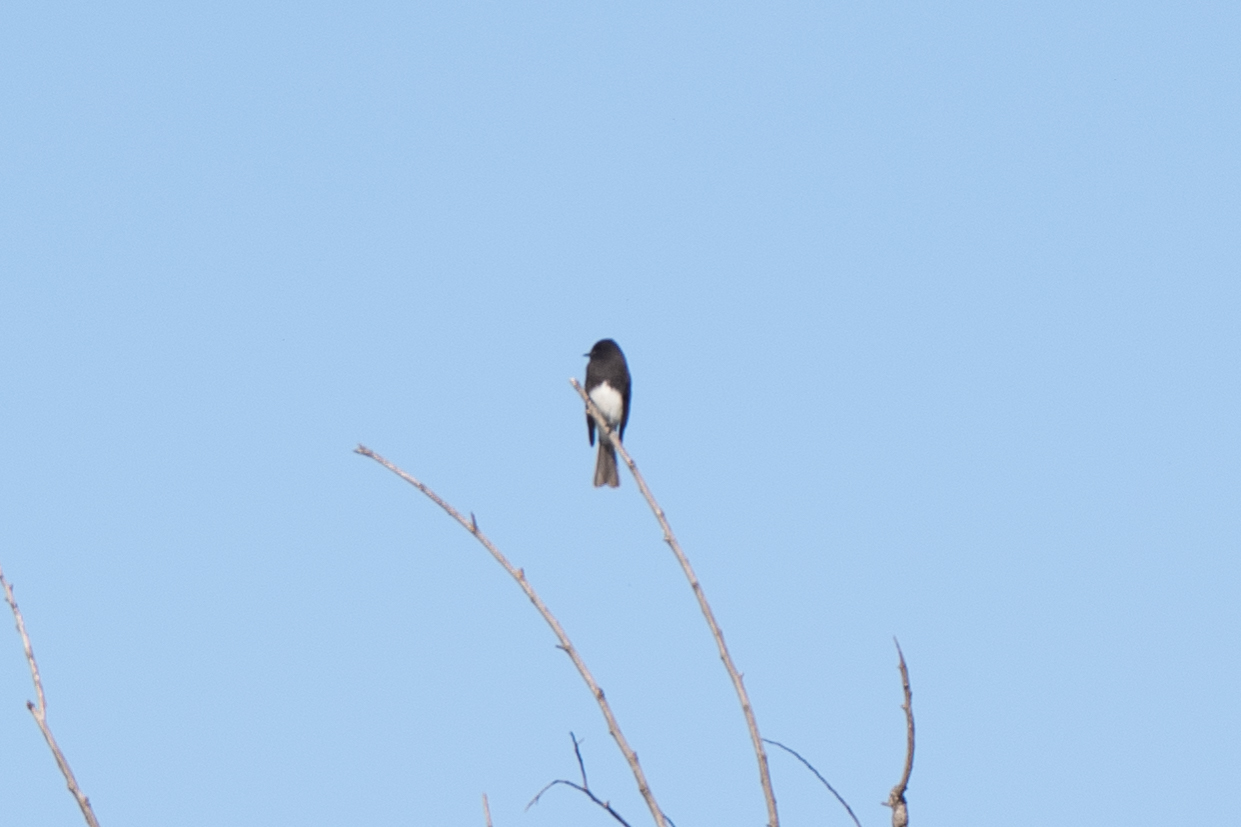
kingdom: Animalia
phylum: Chordata
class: Aves
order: Passeriformes
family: Tyrannidae
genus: Sayornis
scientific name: Sayornis nigricans
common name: Black phoebe
